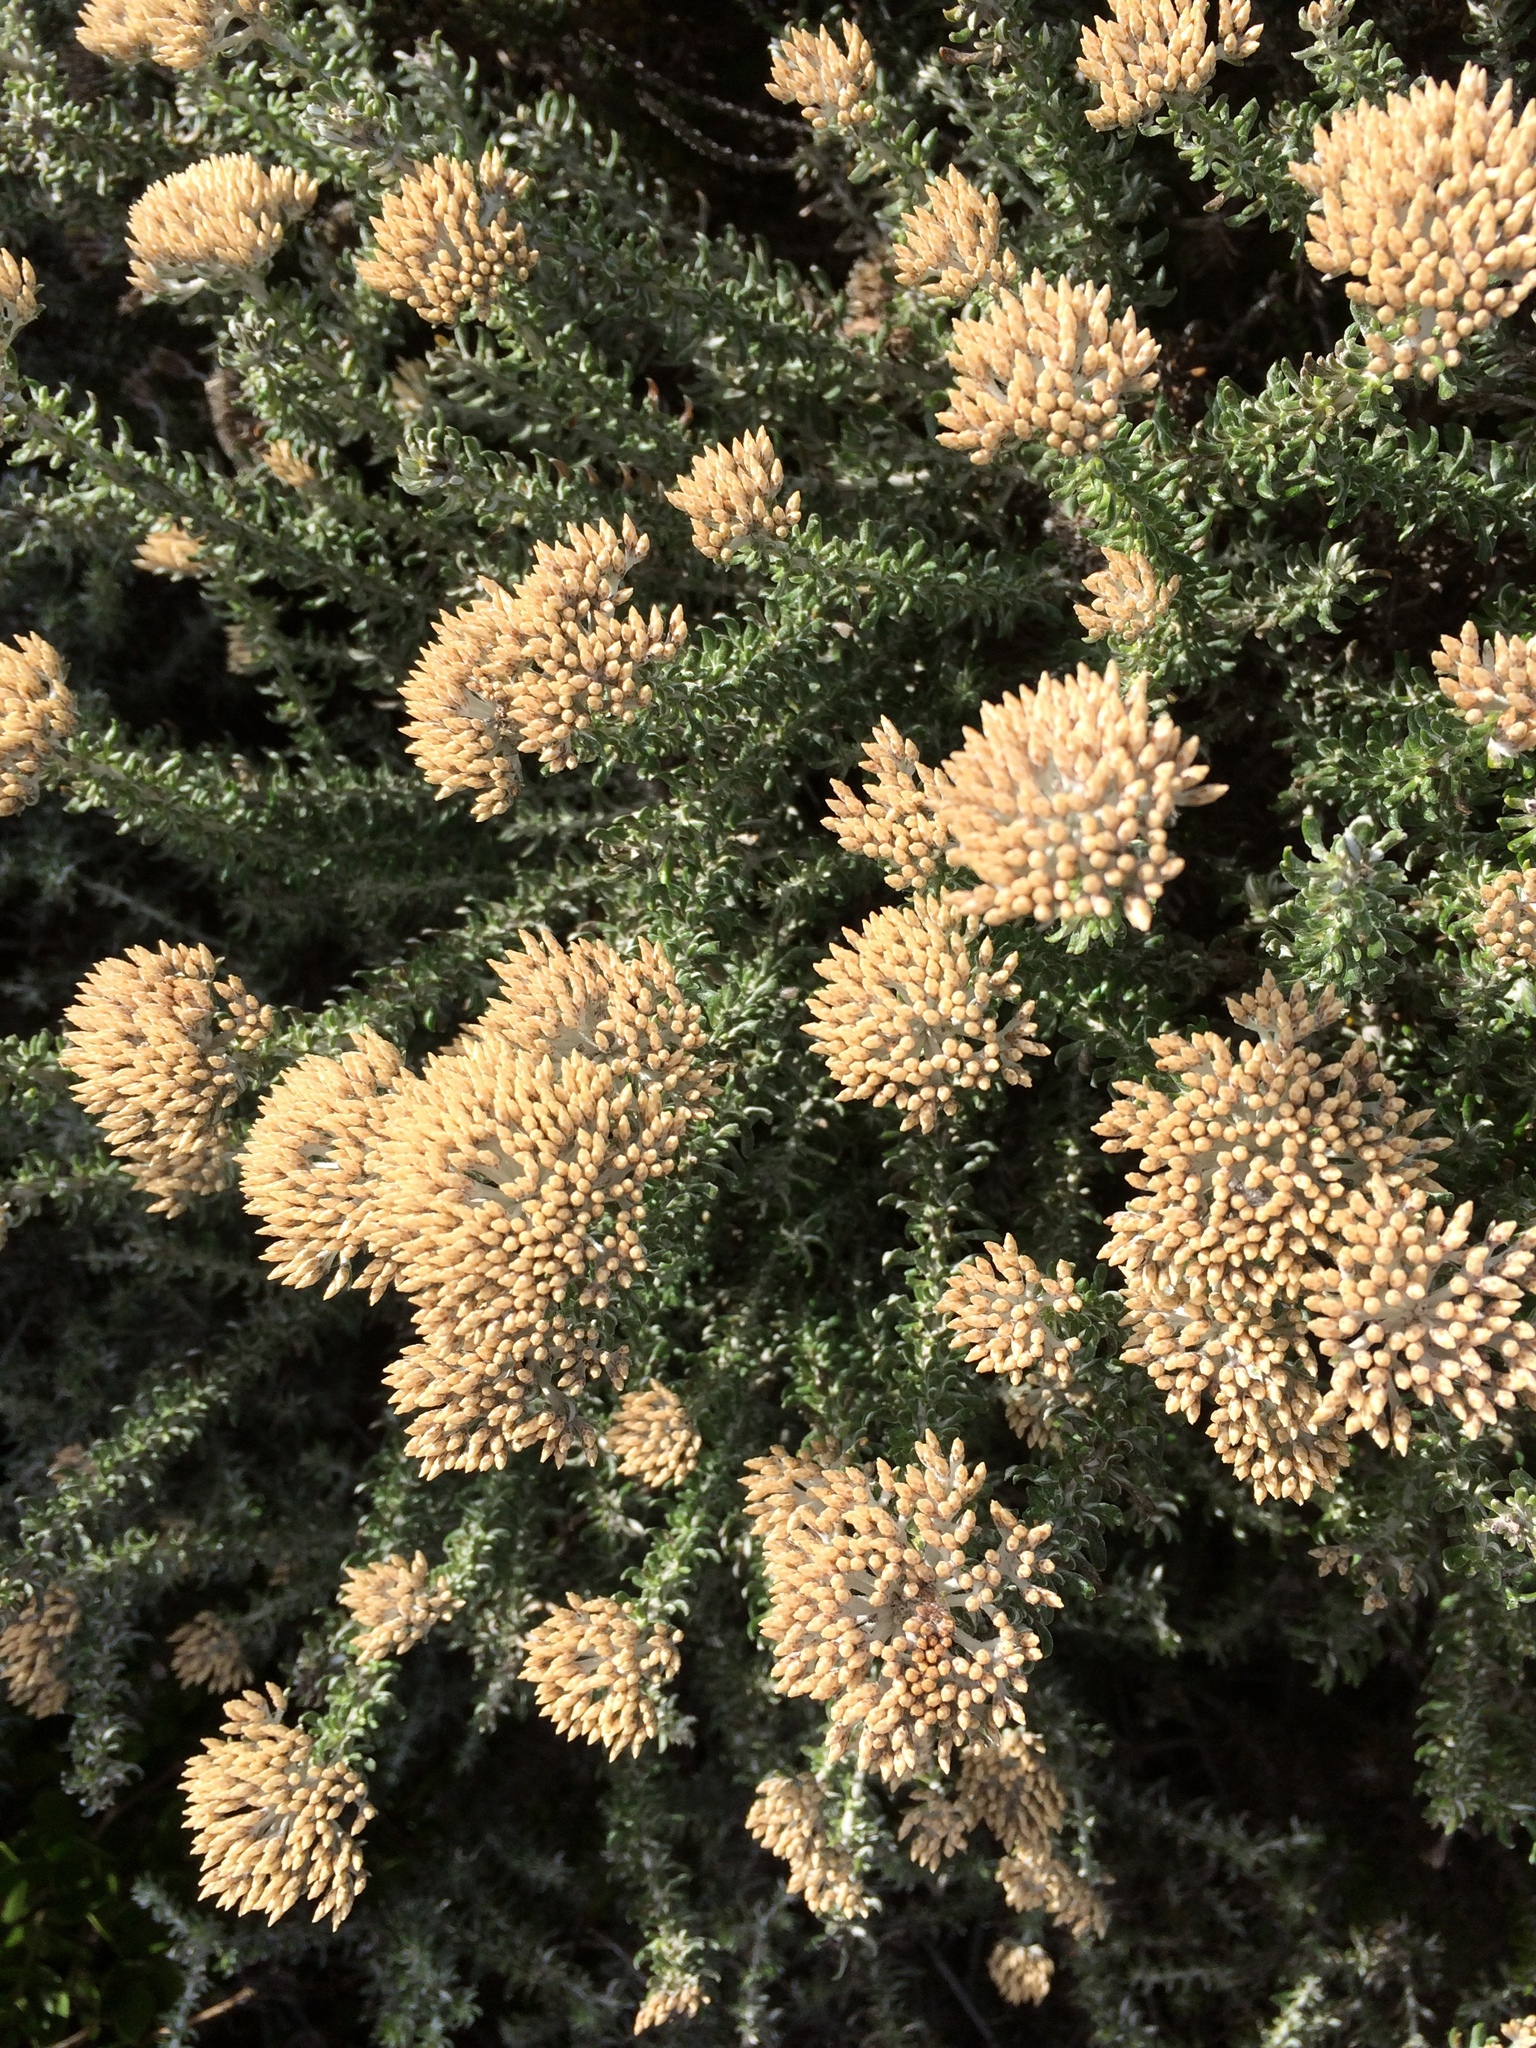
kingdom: Plantae
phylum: Tracheophyta
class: Magnoliopsida
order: Asterales
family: Asteraceae
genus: Metalasia
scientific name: Metalasia densa
